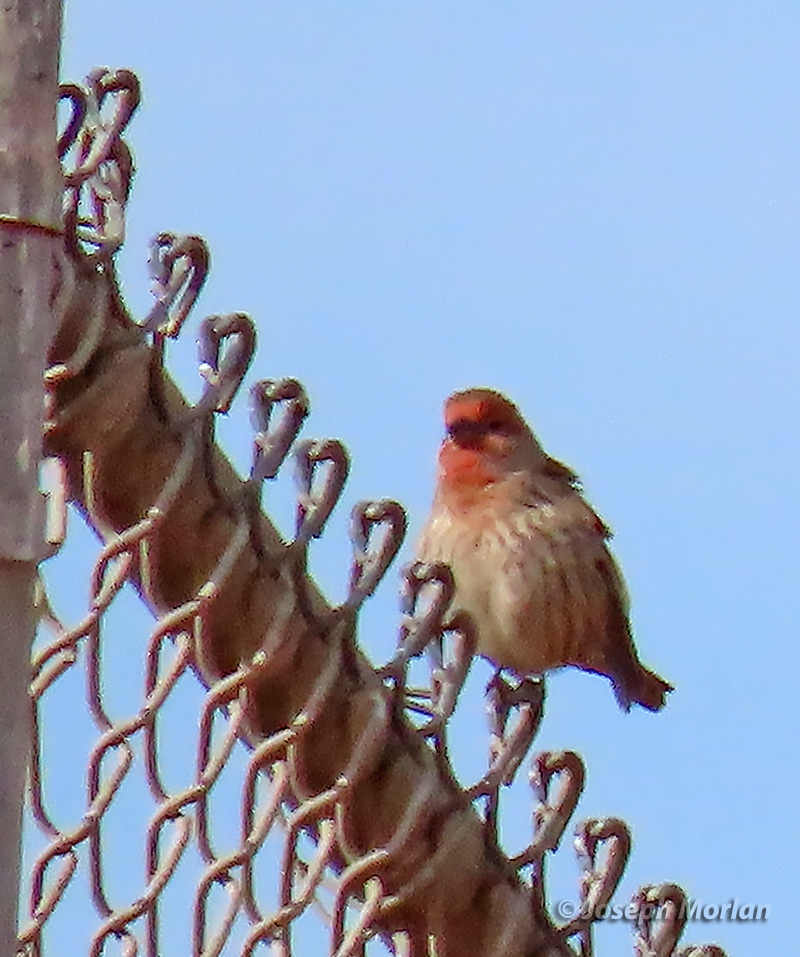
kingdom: Animalia
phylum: Chordata
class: Aves
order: Passeriformes
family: Fringillidae
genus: Haemorhous
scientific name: Haemorhous mexicanus
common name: House finch
